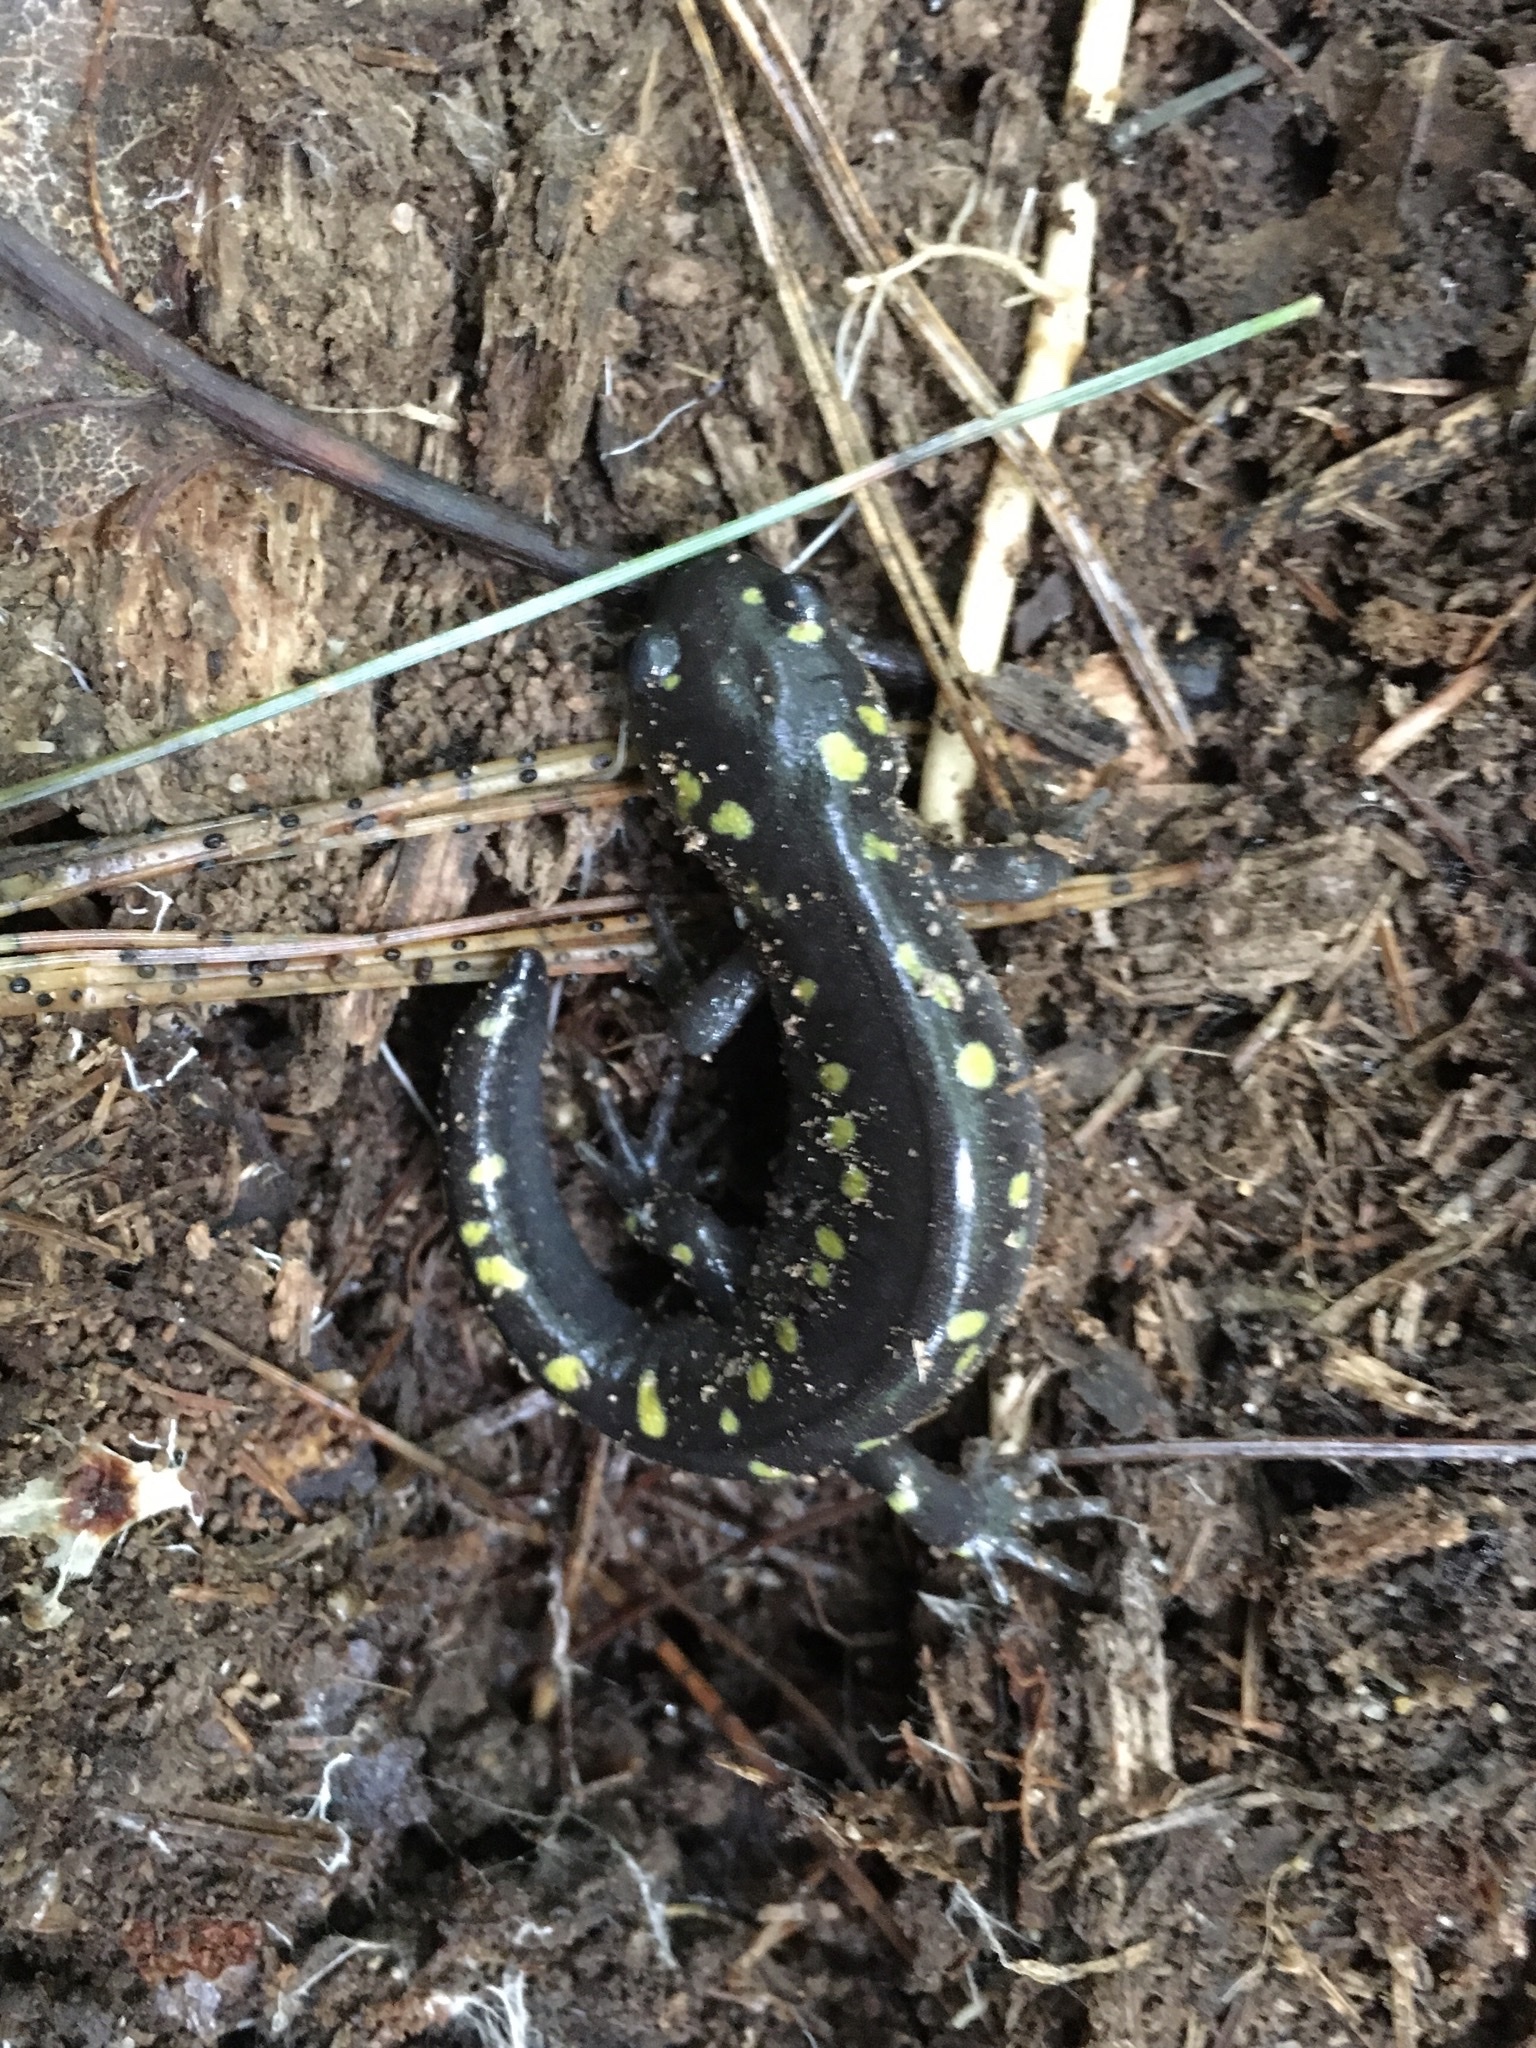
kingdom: Animalia
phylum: Chordata
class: Amphibia
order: Caudata
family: Ambystomatidae
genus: Ambystoma
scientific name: Ambystoma maculatum
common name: Spotted salamander
